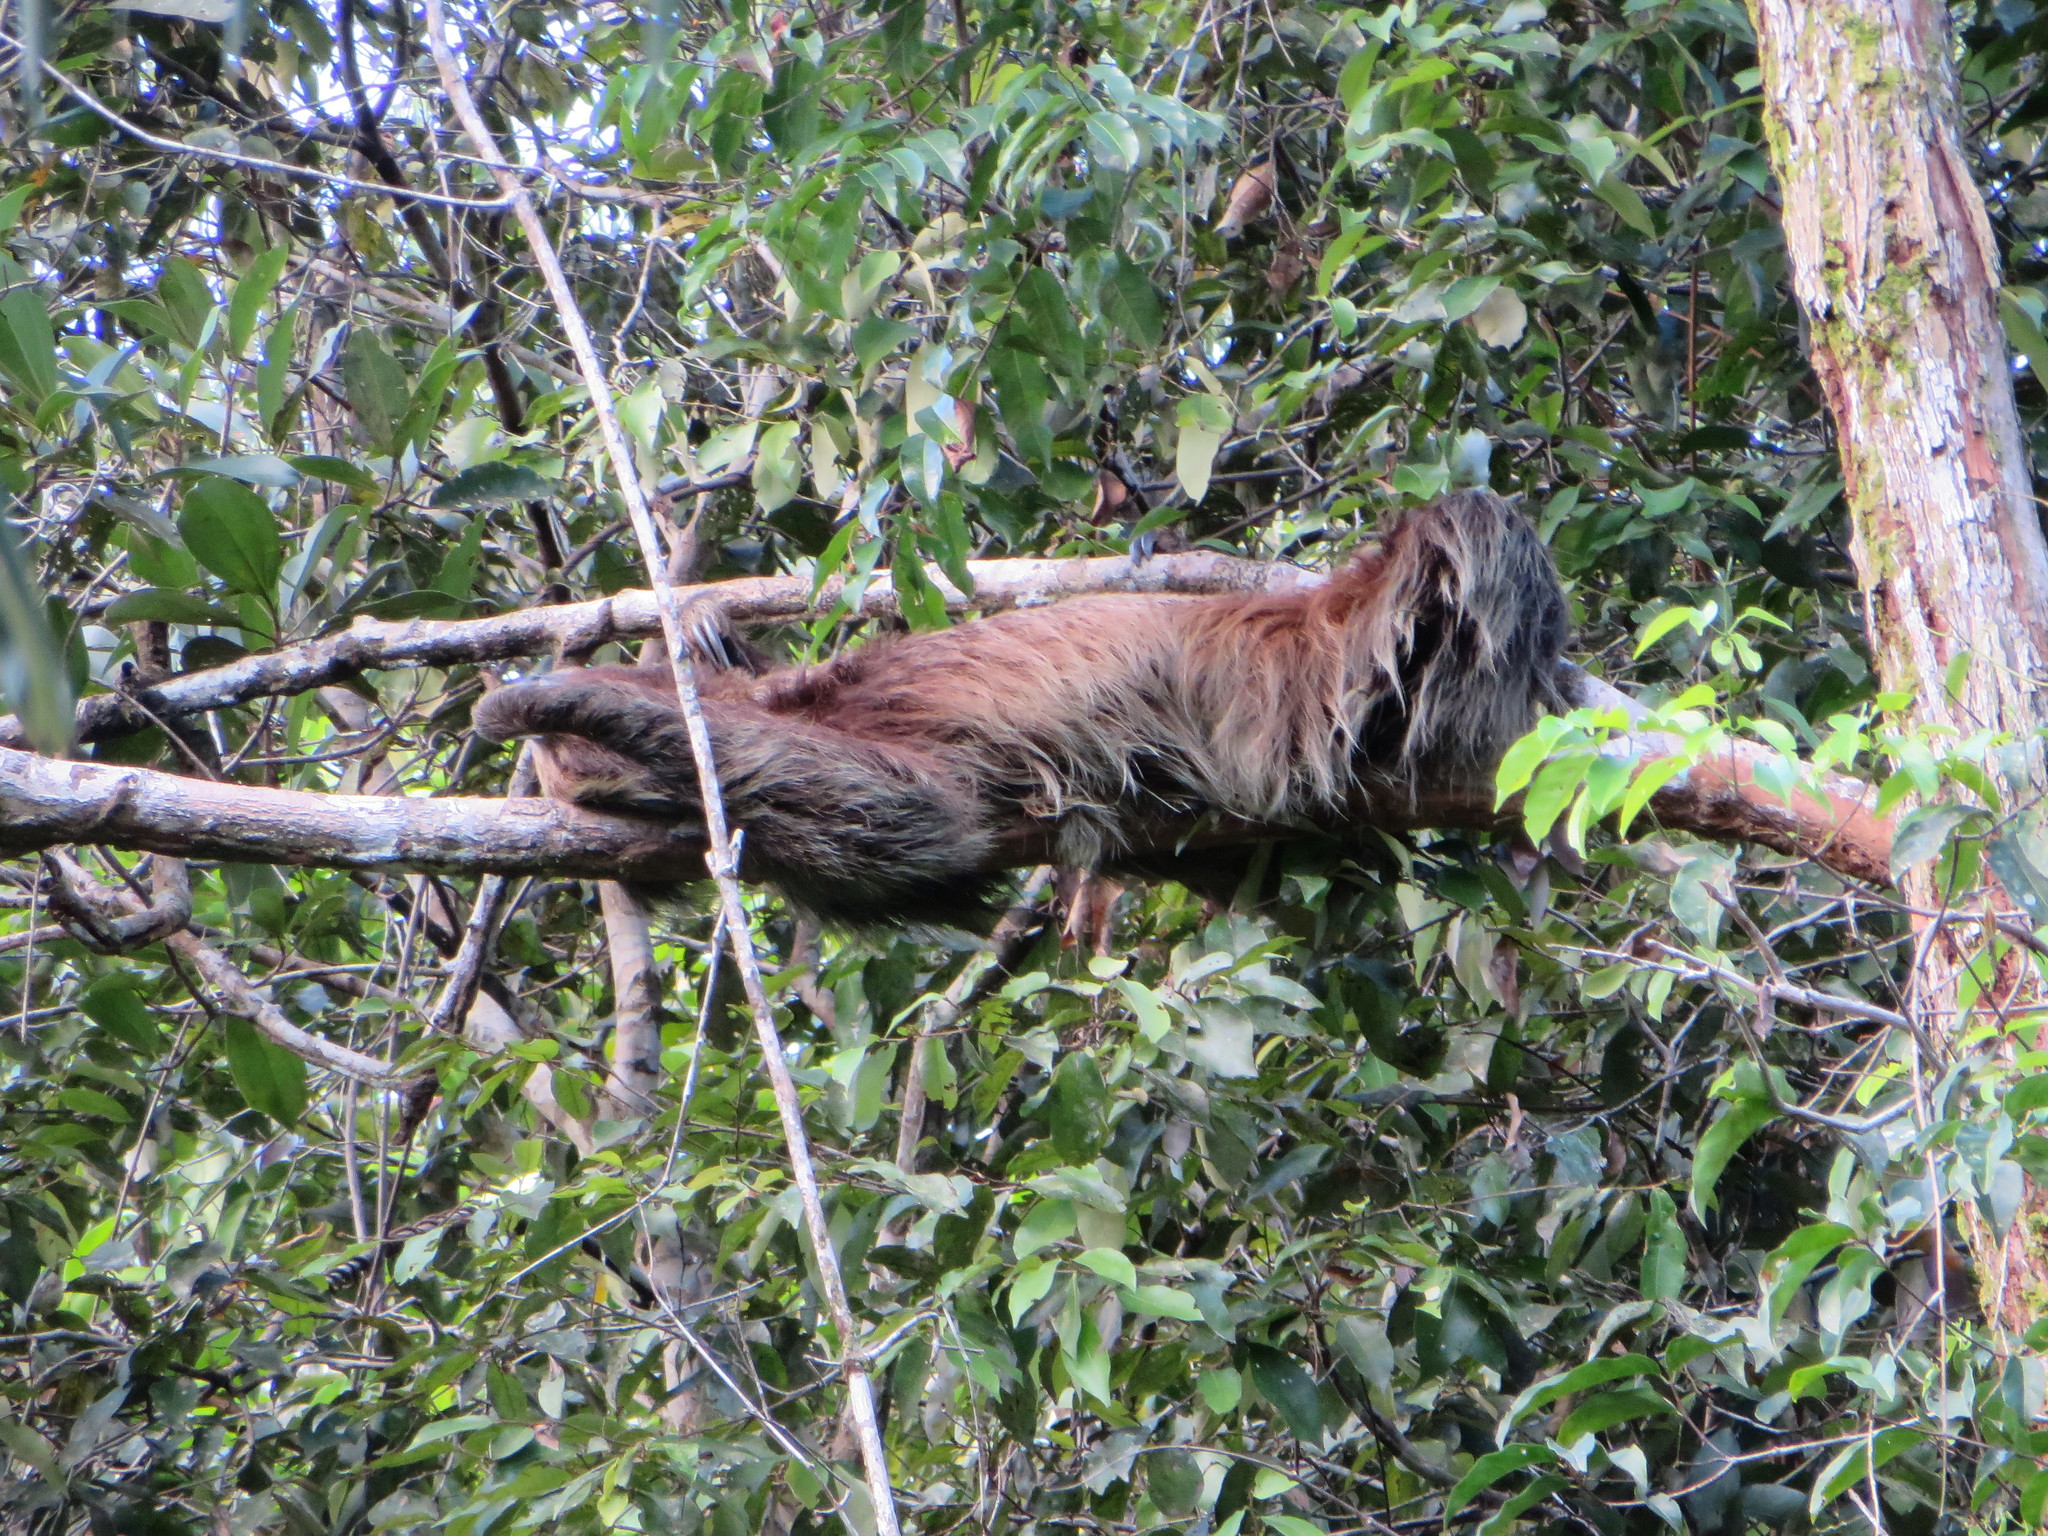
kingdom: Animalia
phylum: Chordata
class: Mammalia
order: Pilosa
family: Megalonychidae
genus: Choloepus
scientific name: Choloepus didactylus
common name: Southern two-toed sloth
